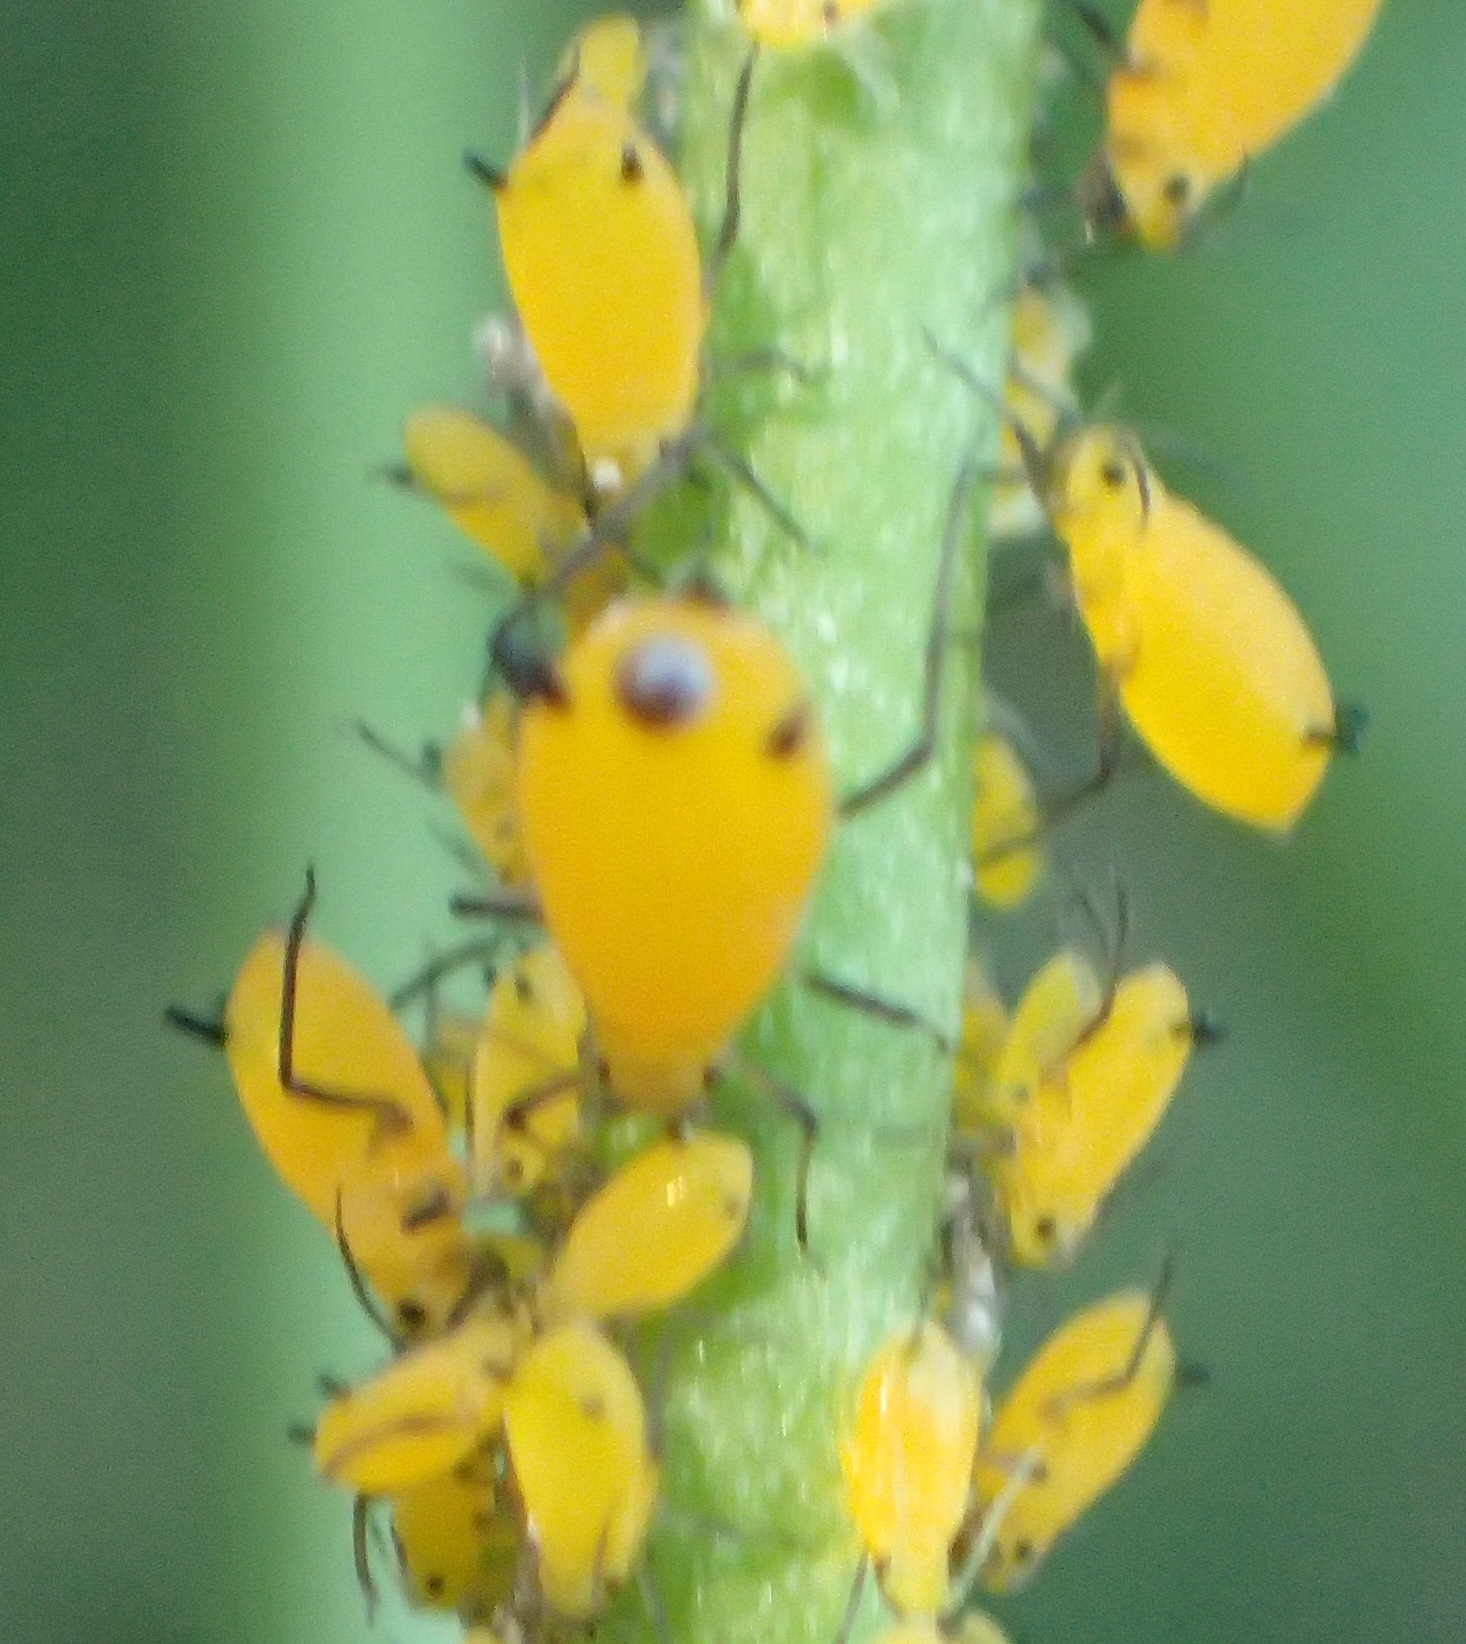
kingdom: Animalia
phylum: Arthropoda
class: Insecta
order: Hemiptera
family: Aphididae
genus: Aphis
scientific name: Aphis nerii
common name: Oleander aphid
